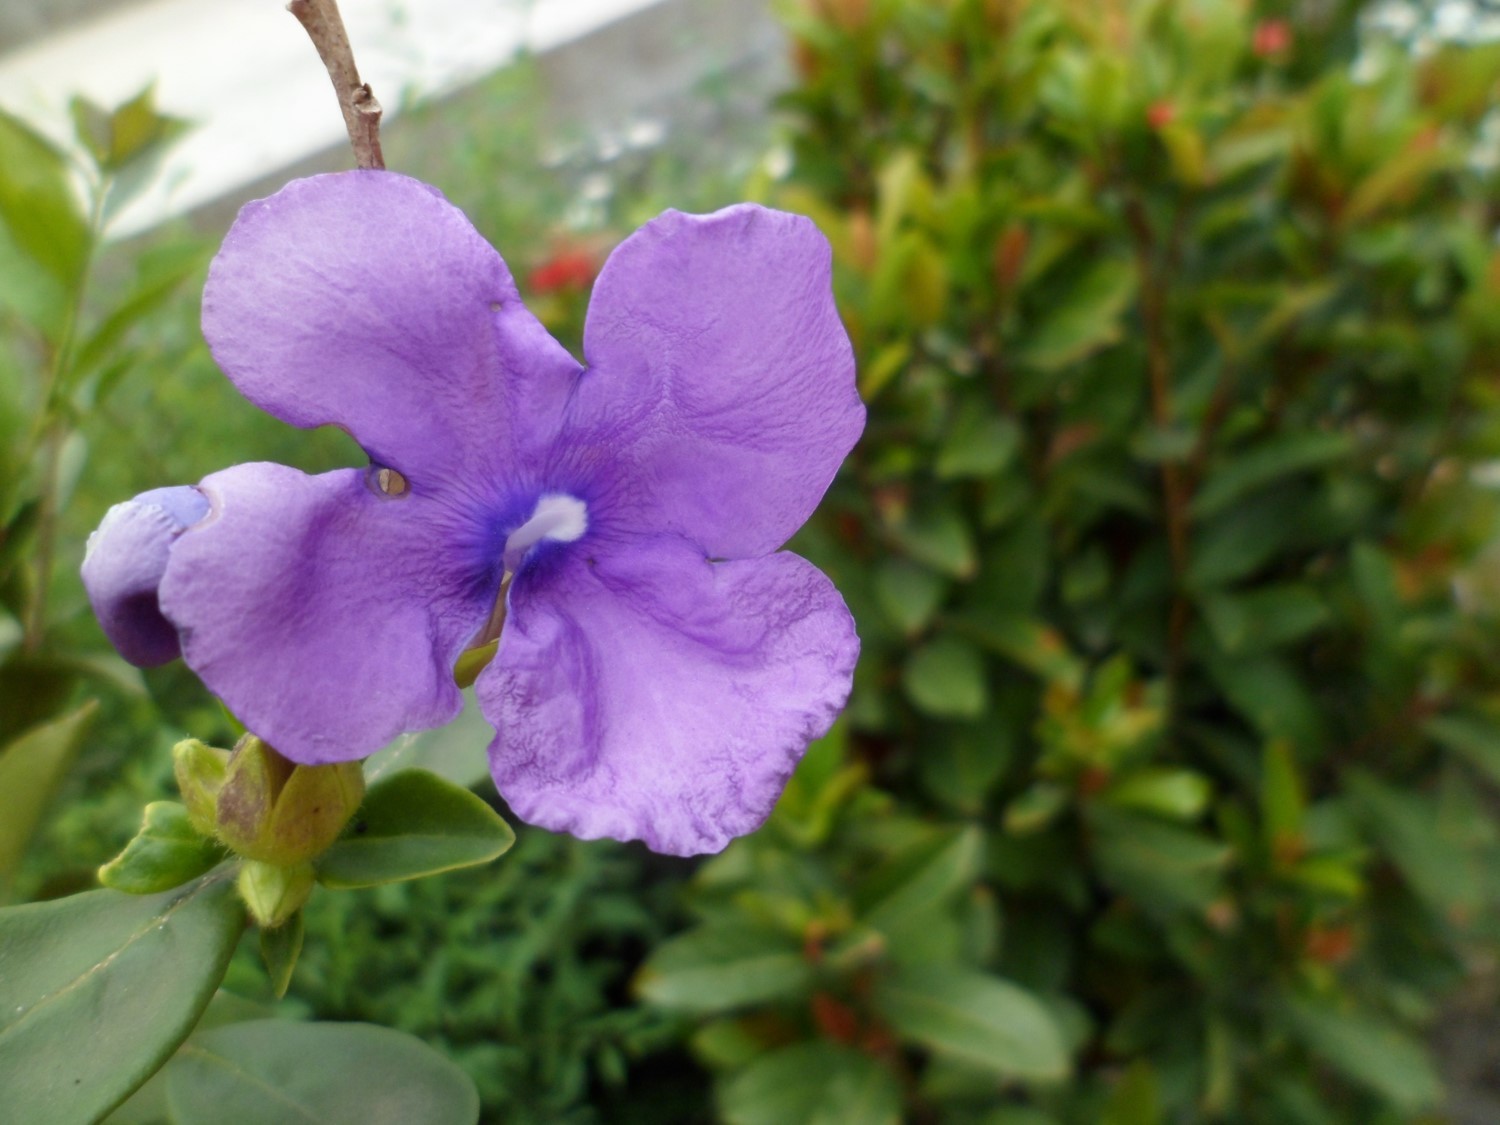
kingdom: Plantae
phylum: Tracheophyta
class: Magnoliopsida
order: Solanales
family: Solanaceae
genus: Brunfelsia
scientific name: Brunfelsia pauciflora
